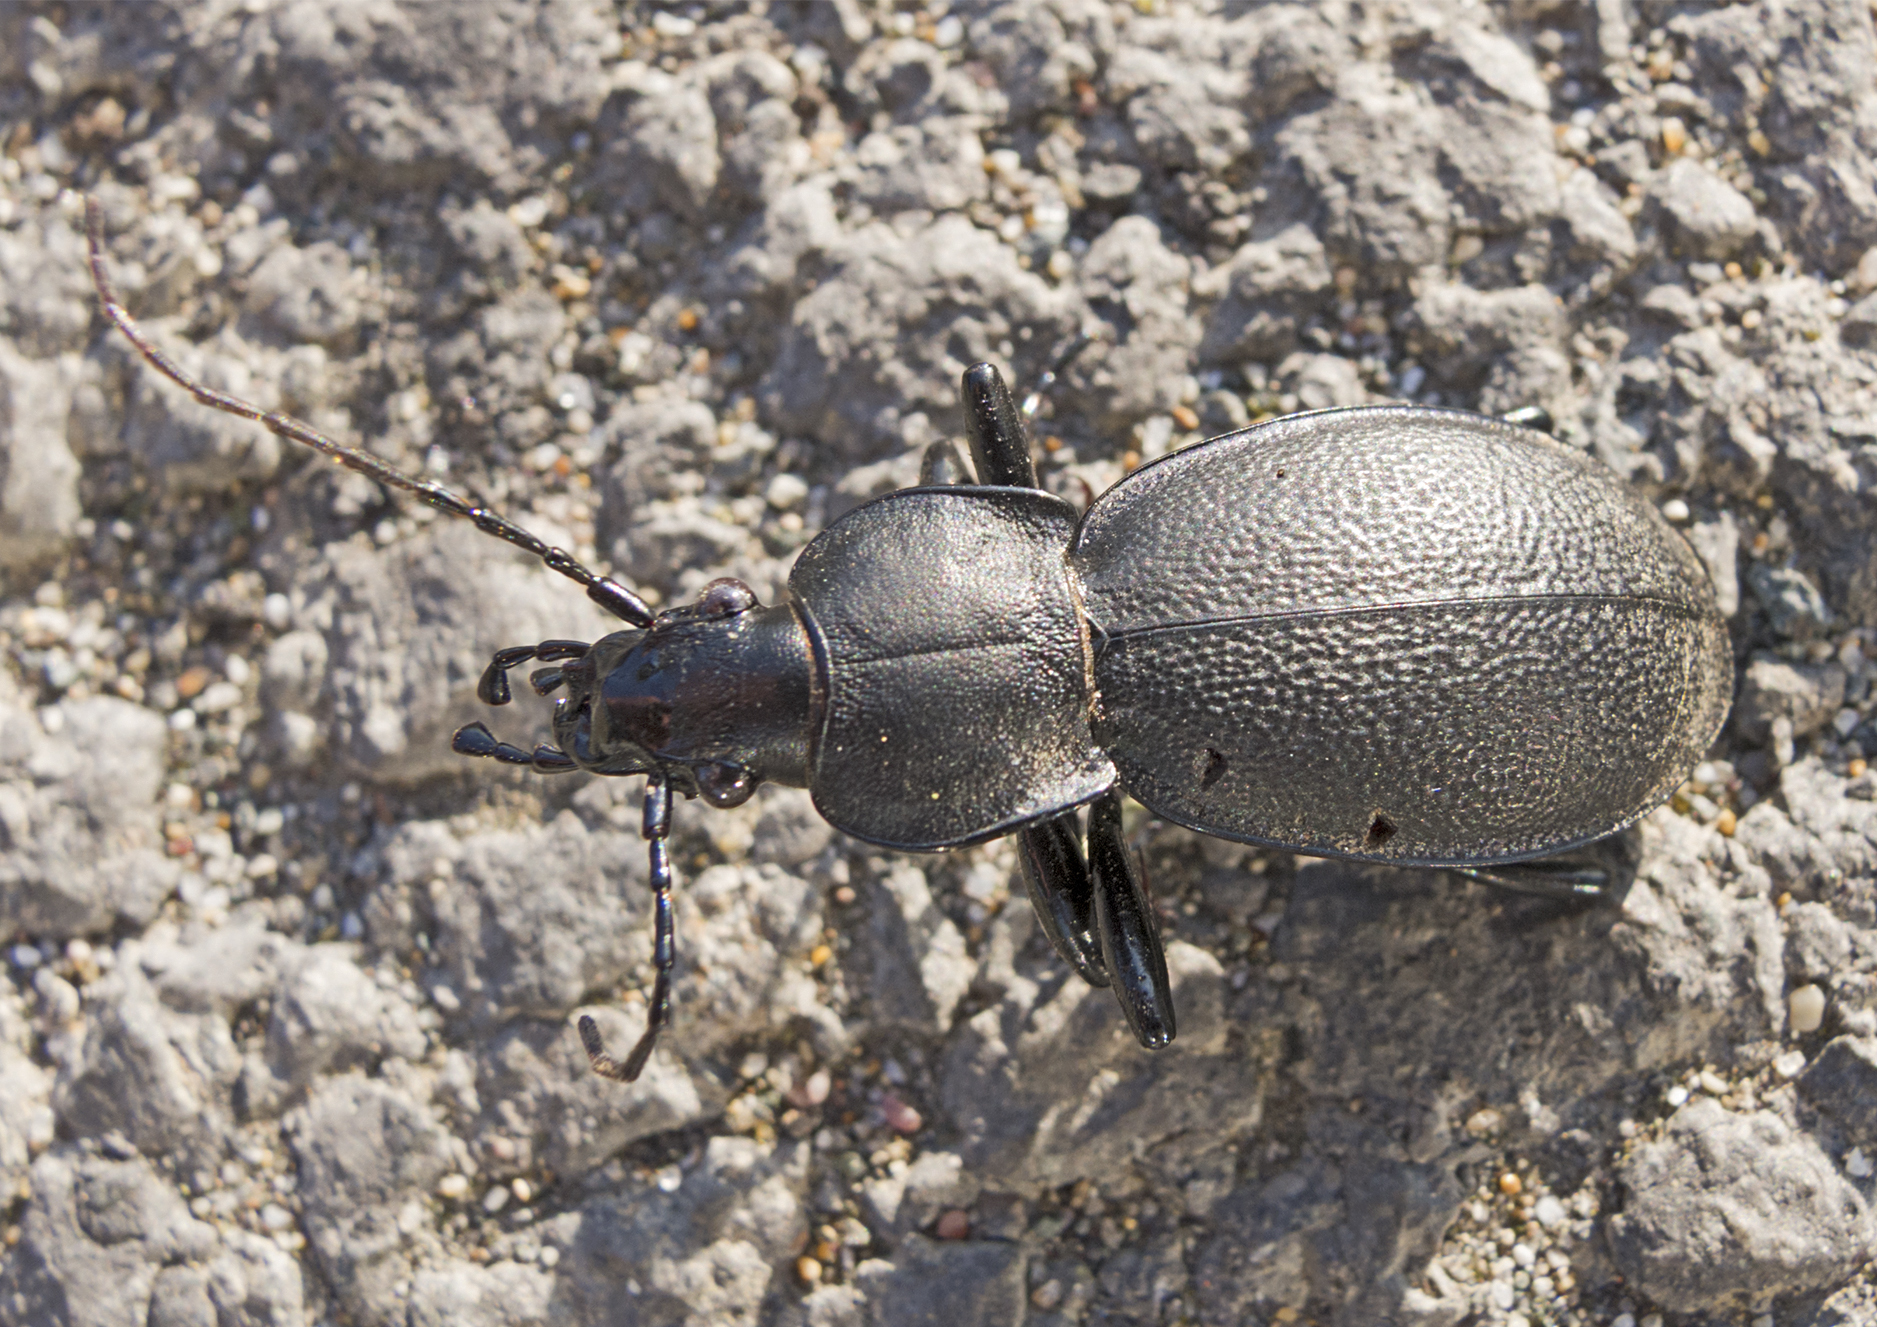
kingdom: Animalia
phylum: Arthropoda
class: Insecta
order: Coleoptera
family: Carabidae
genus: Carabus
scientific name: Carabus coriaceus
